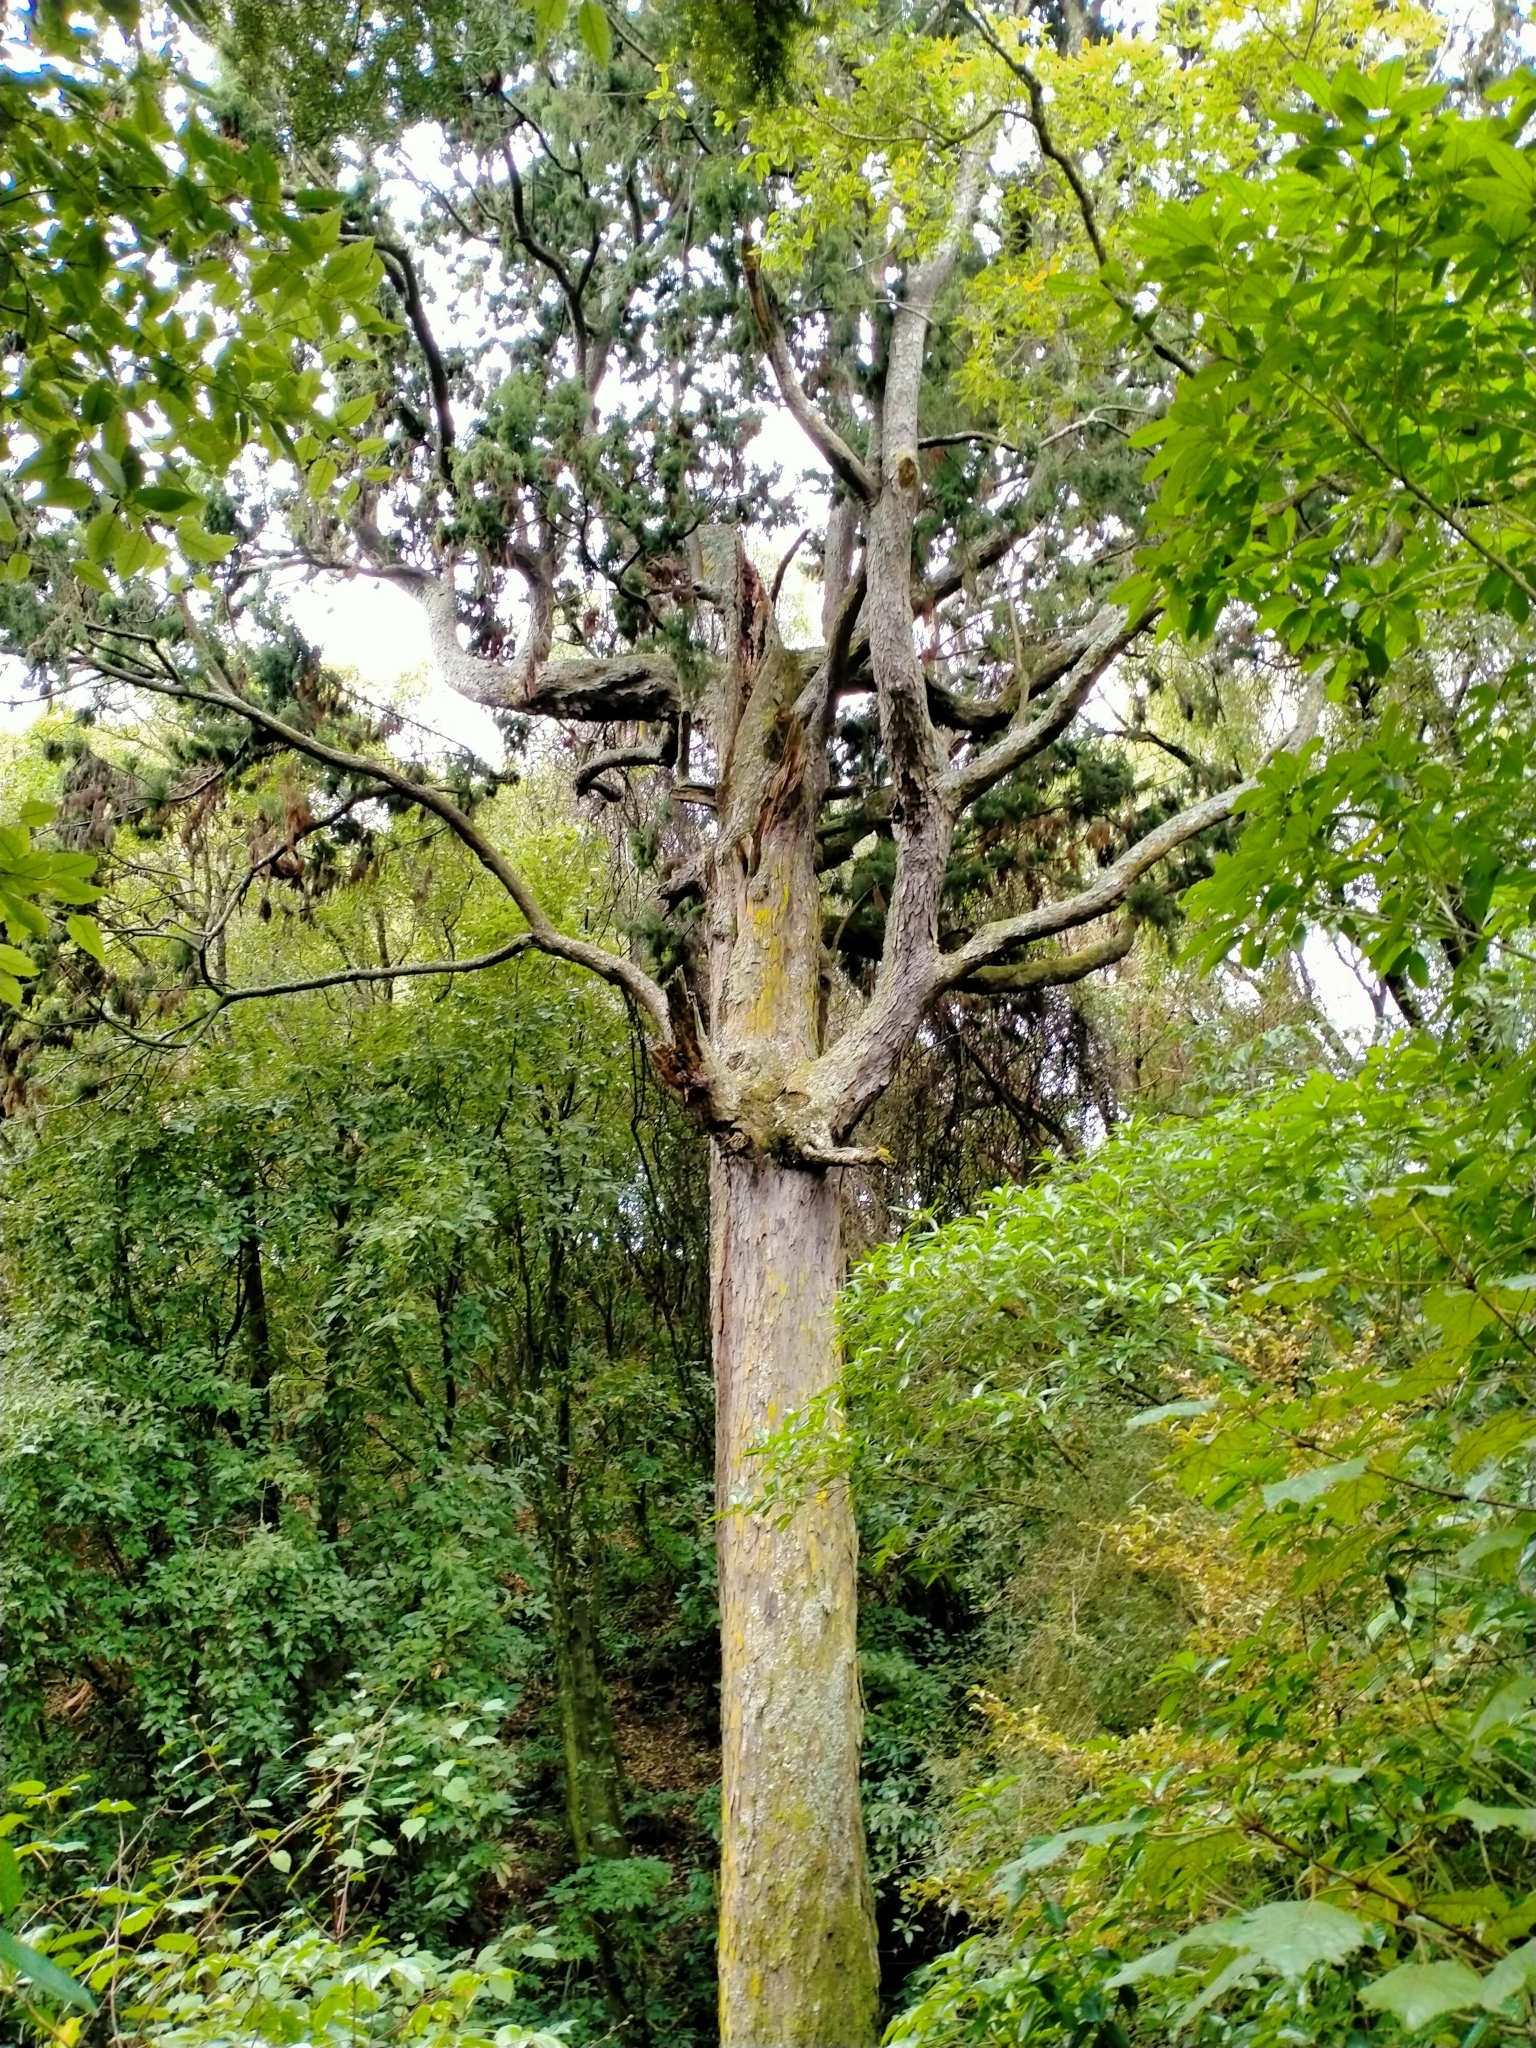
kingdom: Plantae
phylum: Tracheophyta
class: Pinopsida
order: Pinales
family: Podocarpaceae
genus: Dacrydium
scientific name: Dacrydium cupressinum
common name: Red pine
